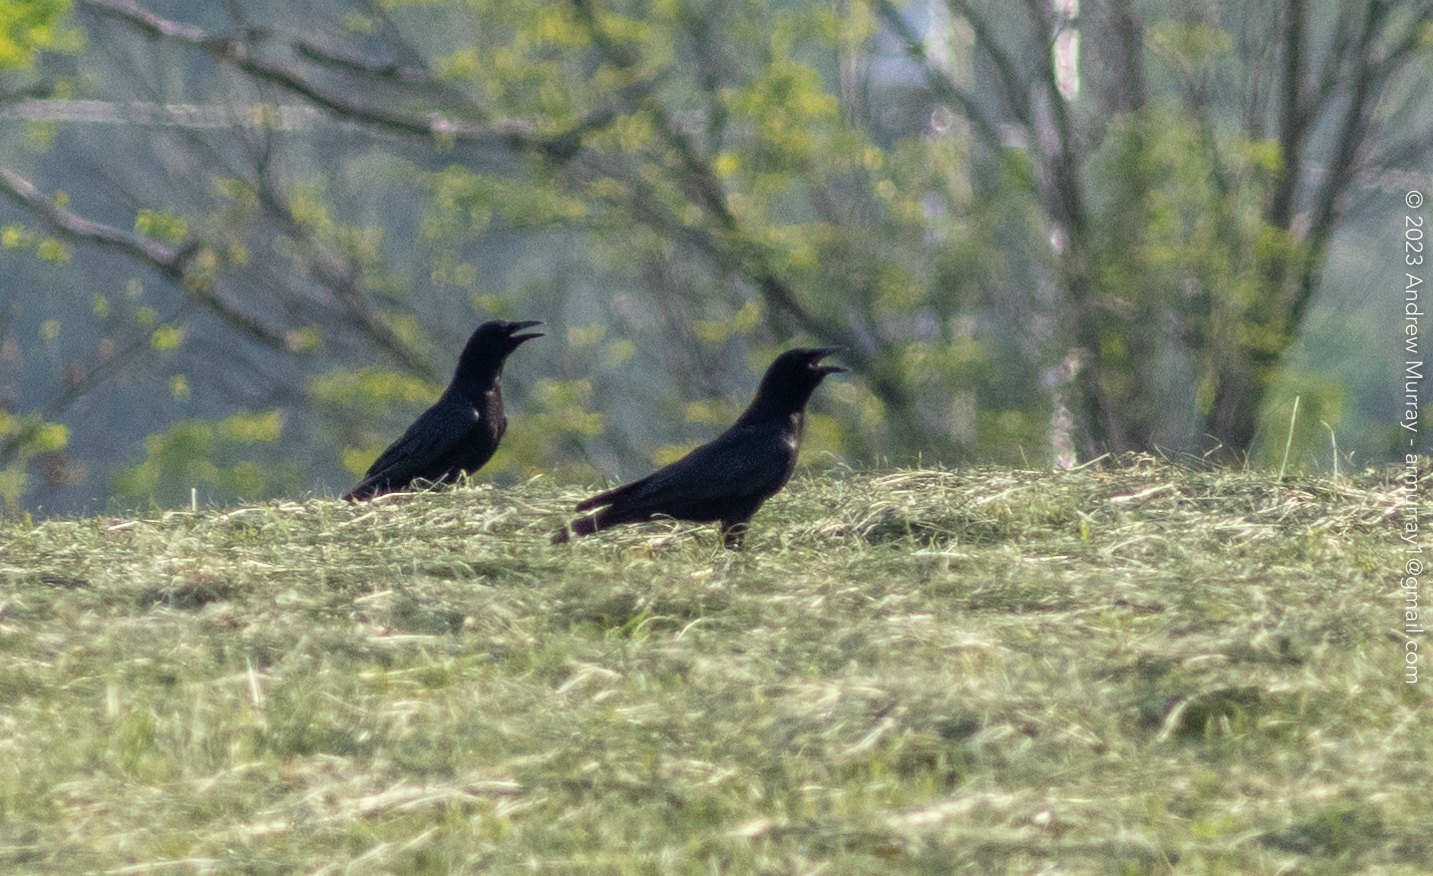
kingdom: Animalia
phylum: Chordata
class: Aves
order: Passeriformes
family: Corvidae
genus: Corvus
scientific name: Corvus brachyrhynchos
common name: American crow
